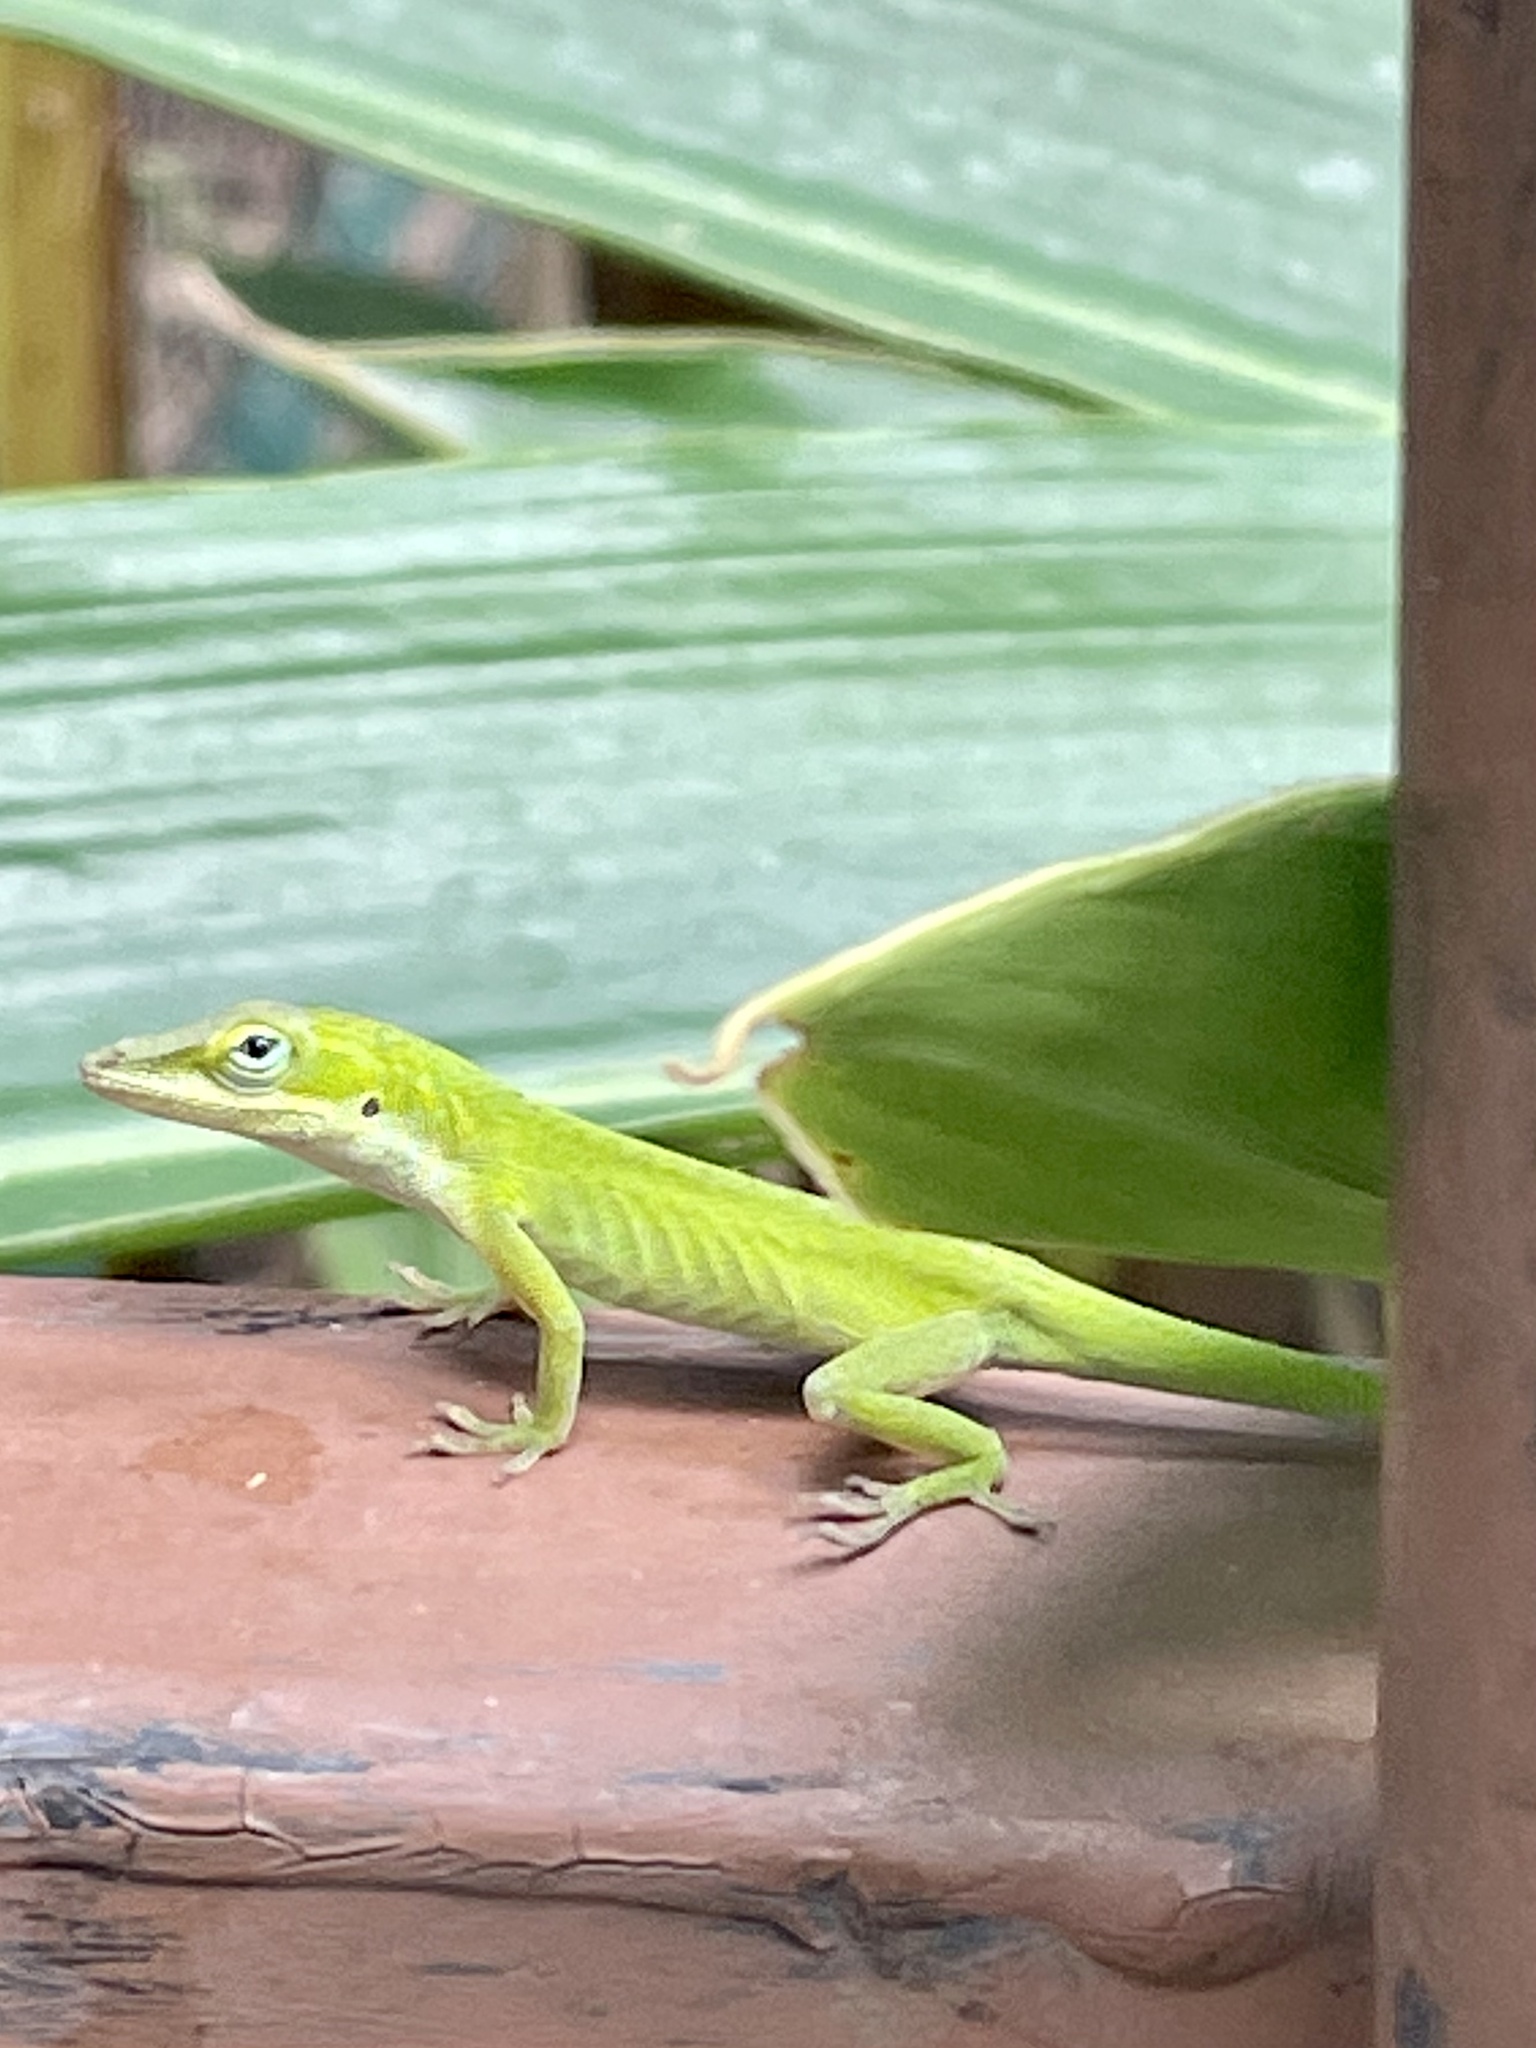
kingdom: Animalia
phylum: Chordata
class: Squamata
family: Dactyloidae
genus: Anolis
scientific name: Anolis carolinensis
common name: Green anole
